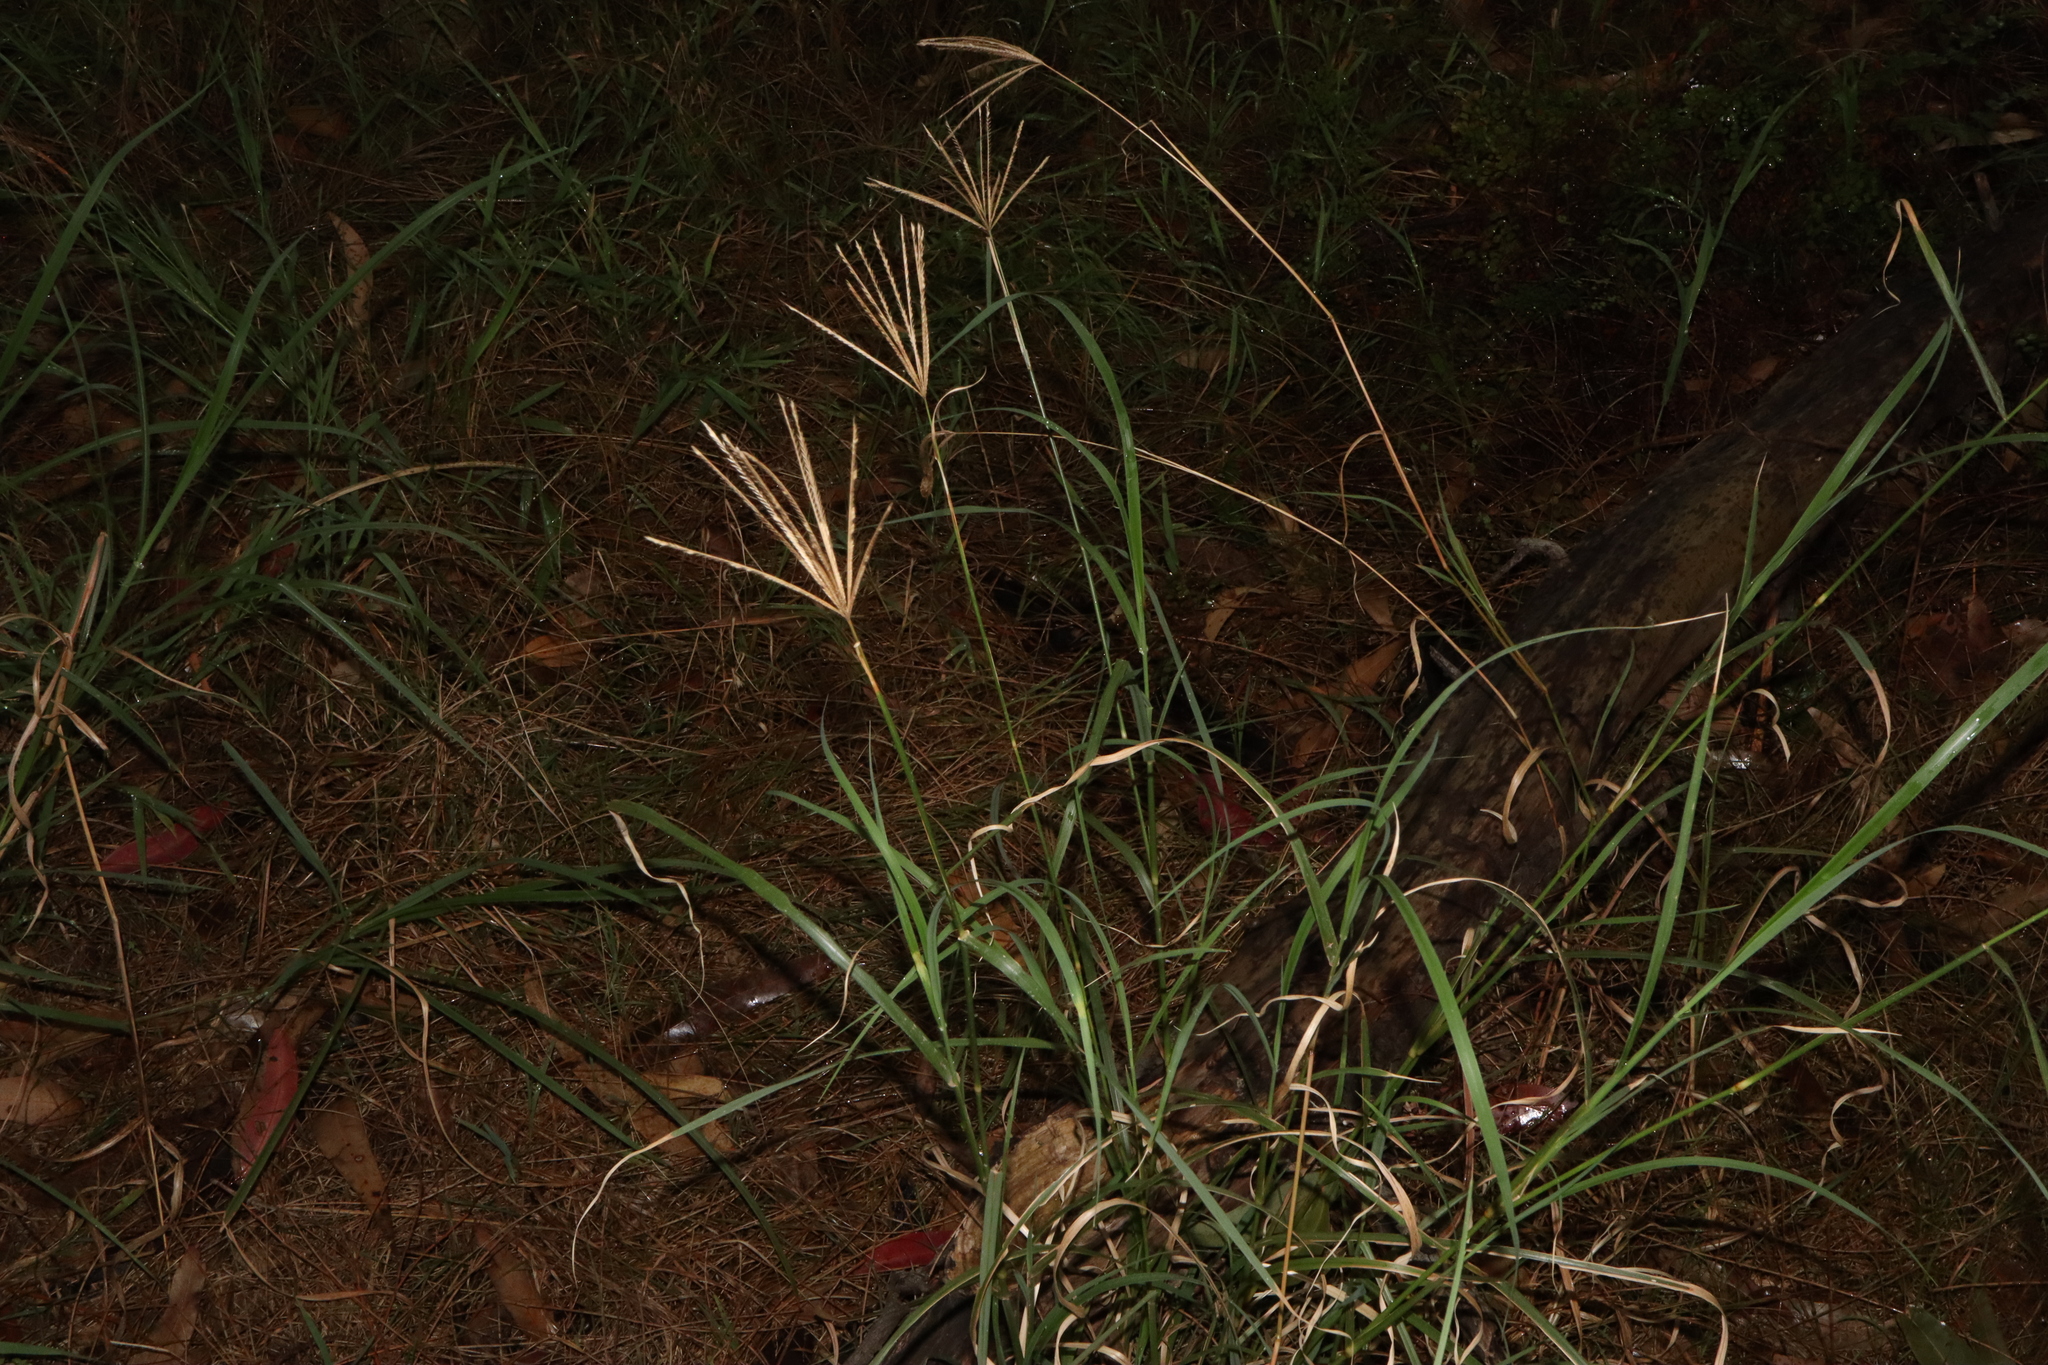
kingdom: Plantae
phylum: Tracheophyta
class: Liliopsida
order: Poales
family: Poaceae
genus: Chloris
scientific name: Chloris gayana
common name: Rhodes grass
